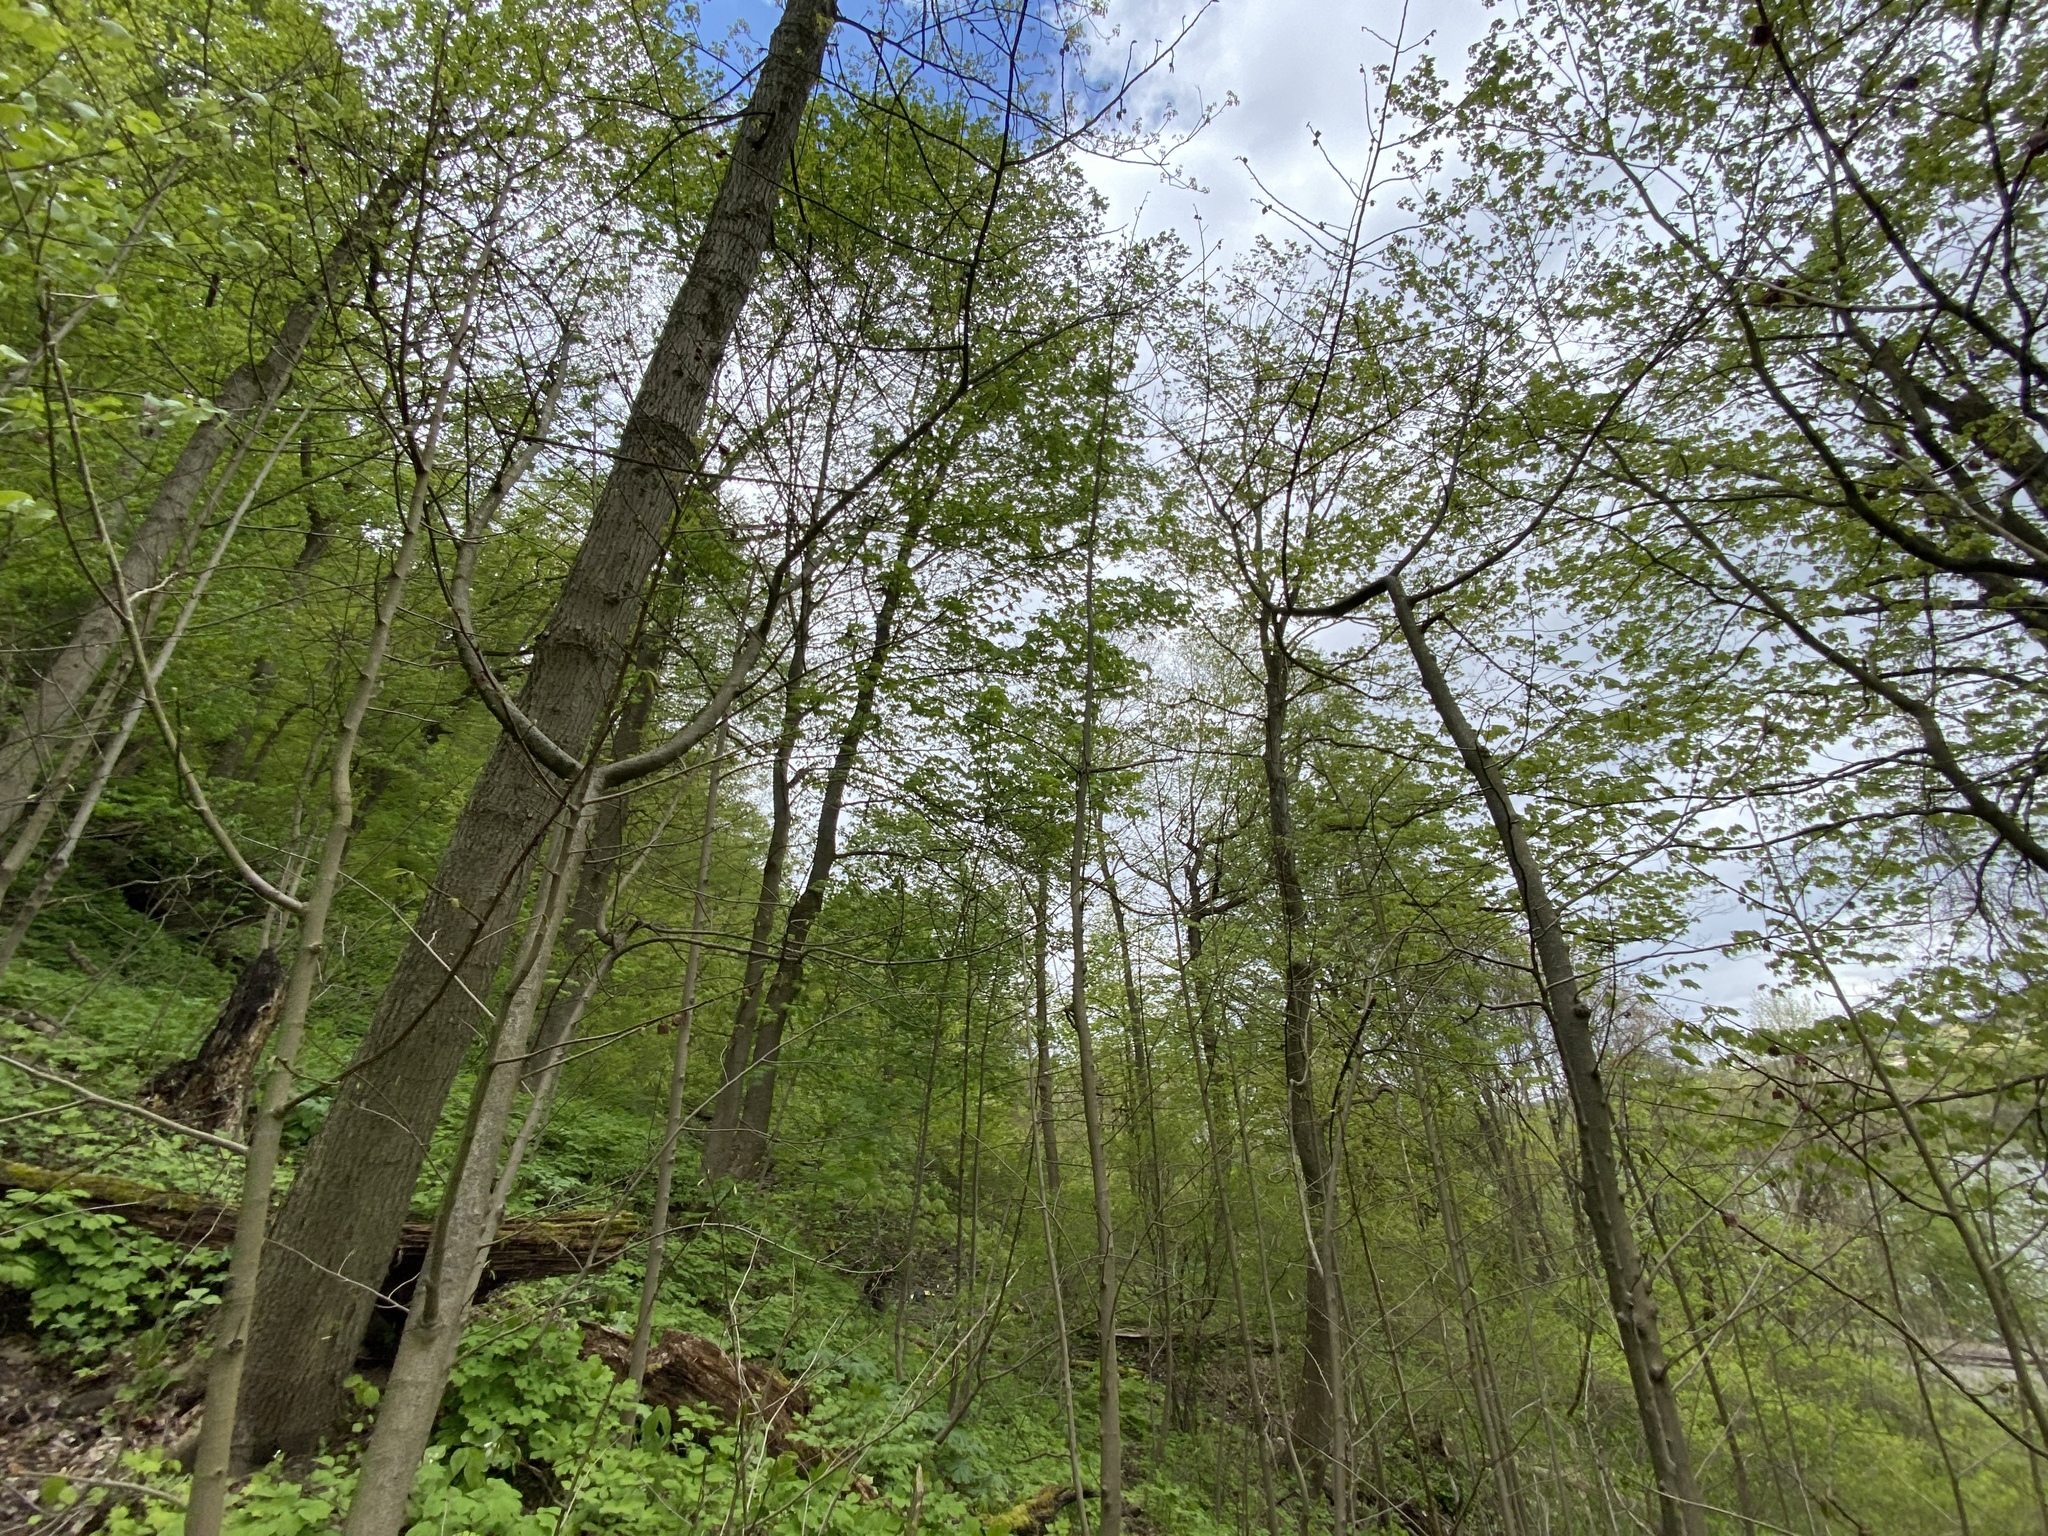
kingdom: Plantae
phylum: Tracheophyta
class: Magnoliopsida
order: Magnoliales
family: Annonaceae
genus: Asimina
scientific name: Asimina triloba
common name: Dog-banana
